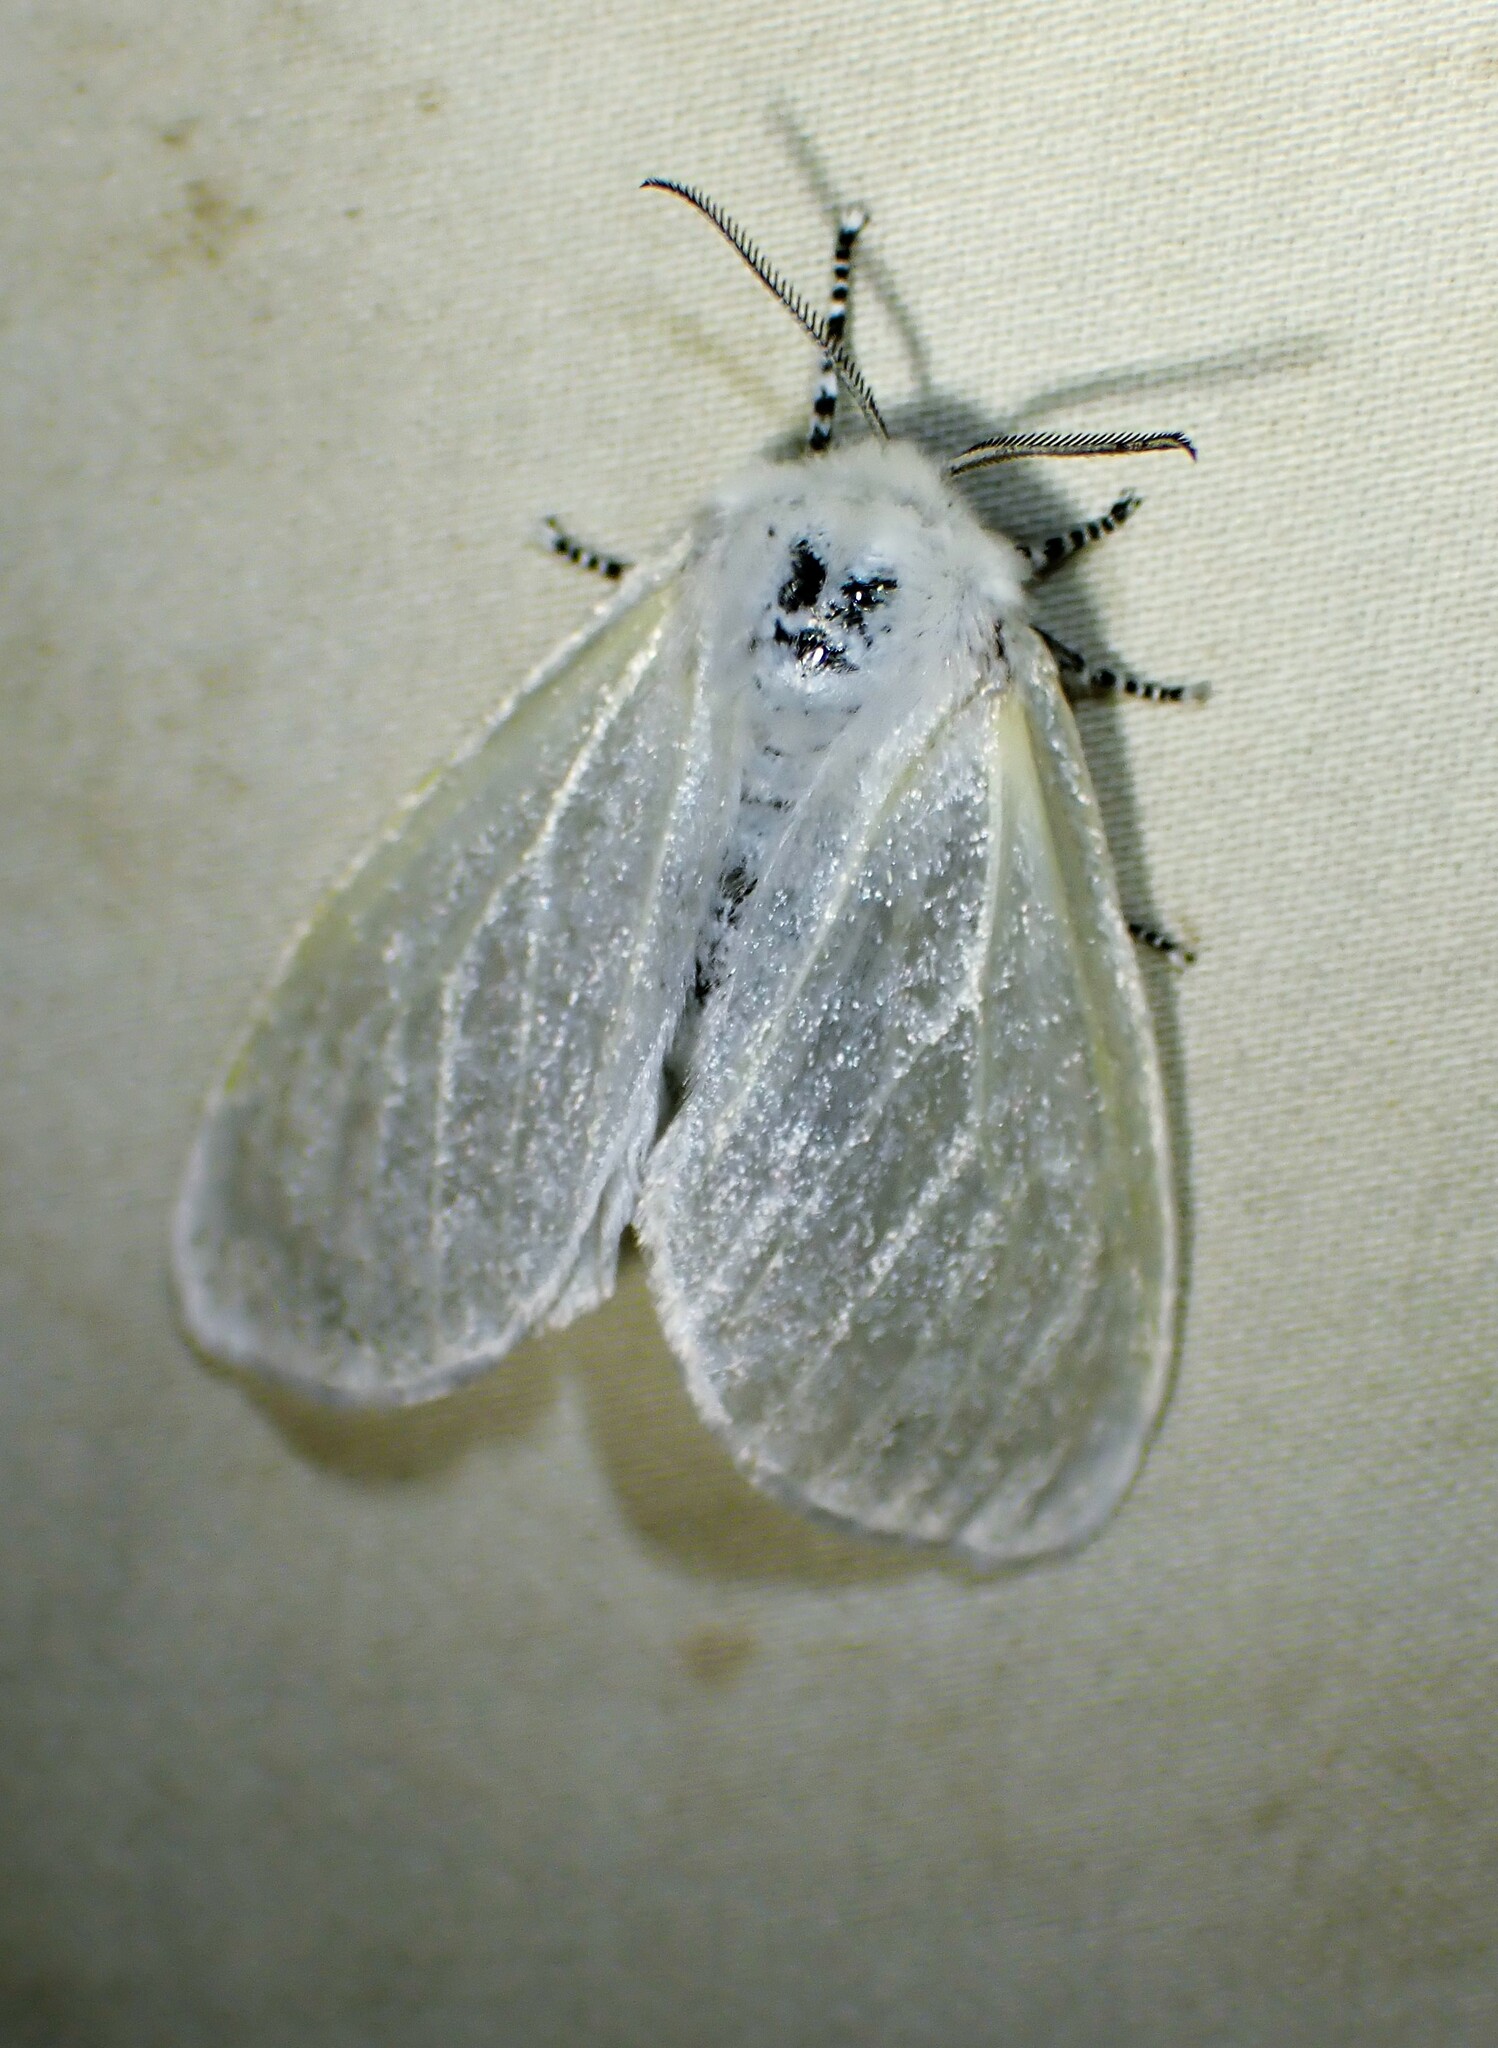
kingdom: Animalia
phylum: Arthropoda
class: Insecta
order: Lepidoptera
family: Erebidae
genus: Leucoma
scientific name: Leucoma salicis
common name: White satin moth
